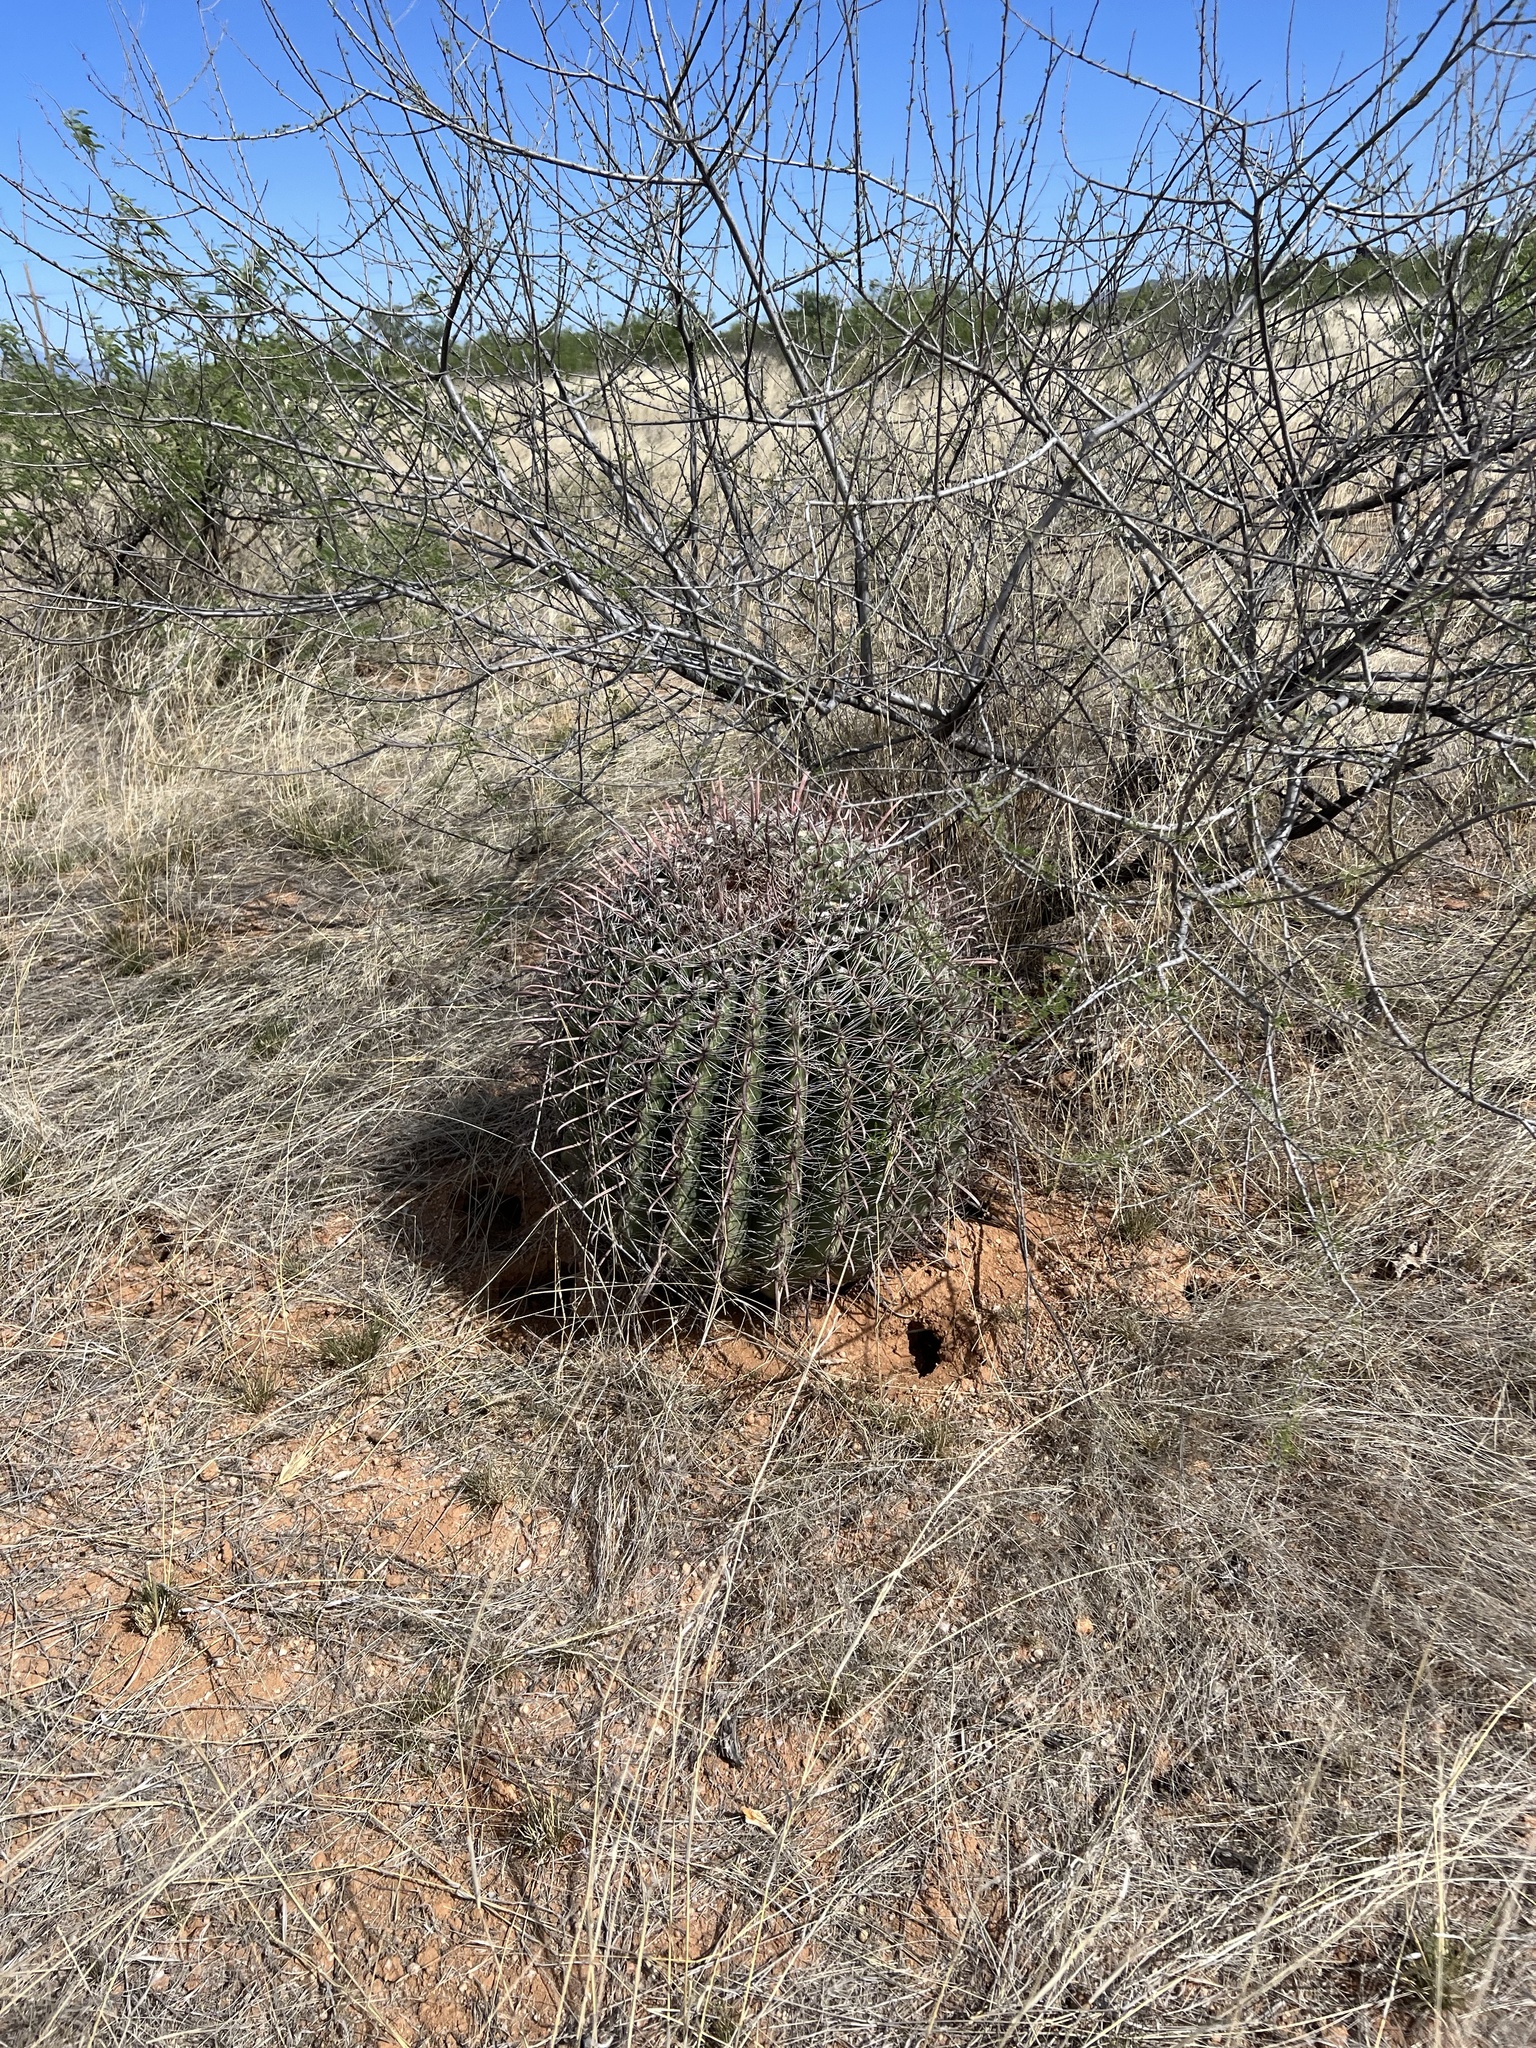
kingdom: Plantae
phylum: Tracheophyta
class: Magnoliopsida
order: Caryophyllales
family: Cactaceae
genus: Ferocactus
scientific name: Ferocactus wislizeni
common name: Candy barrel cactus
